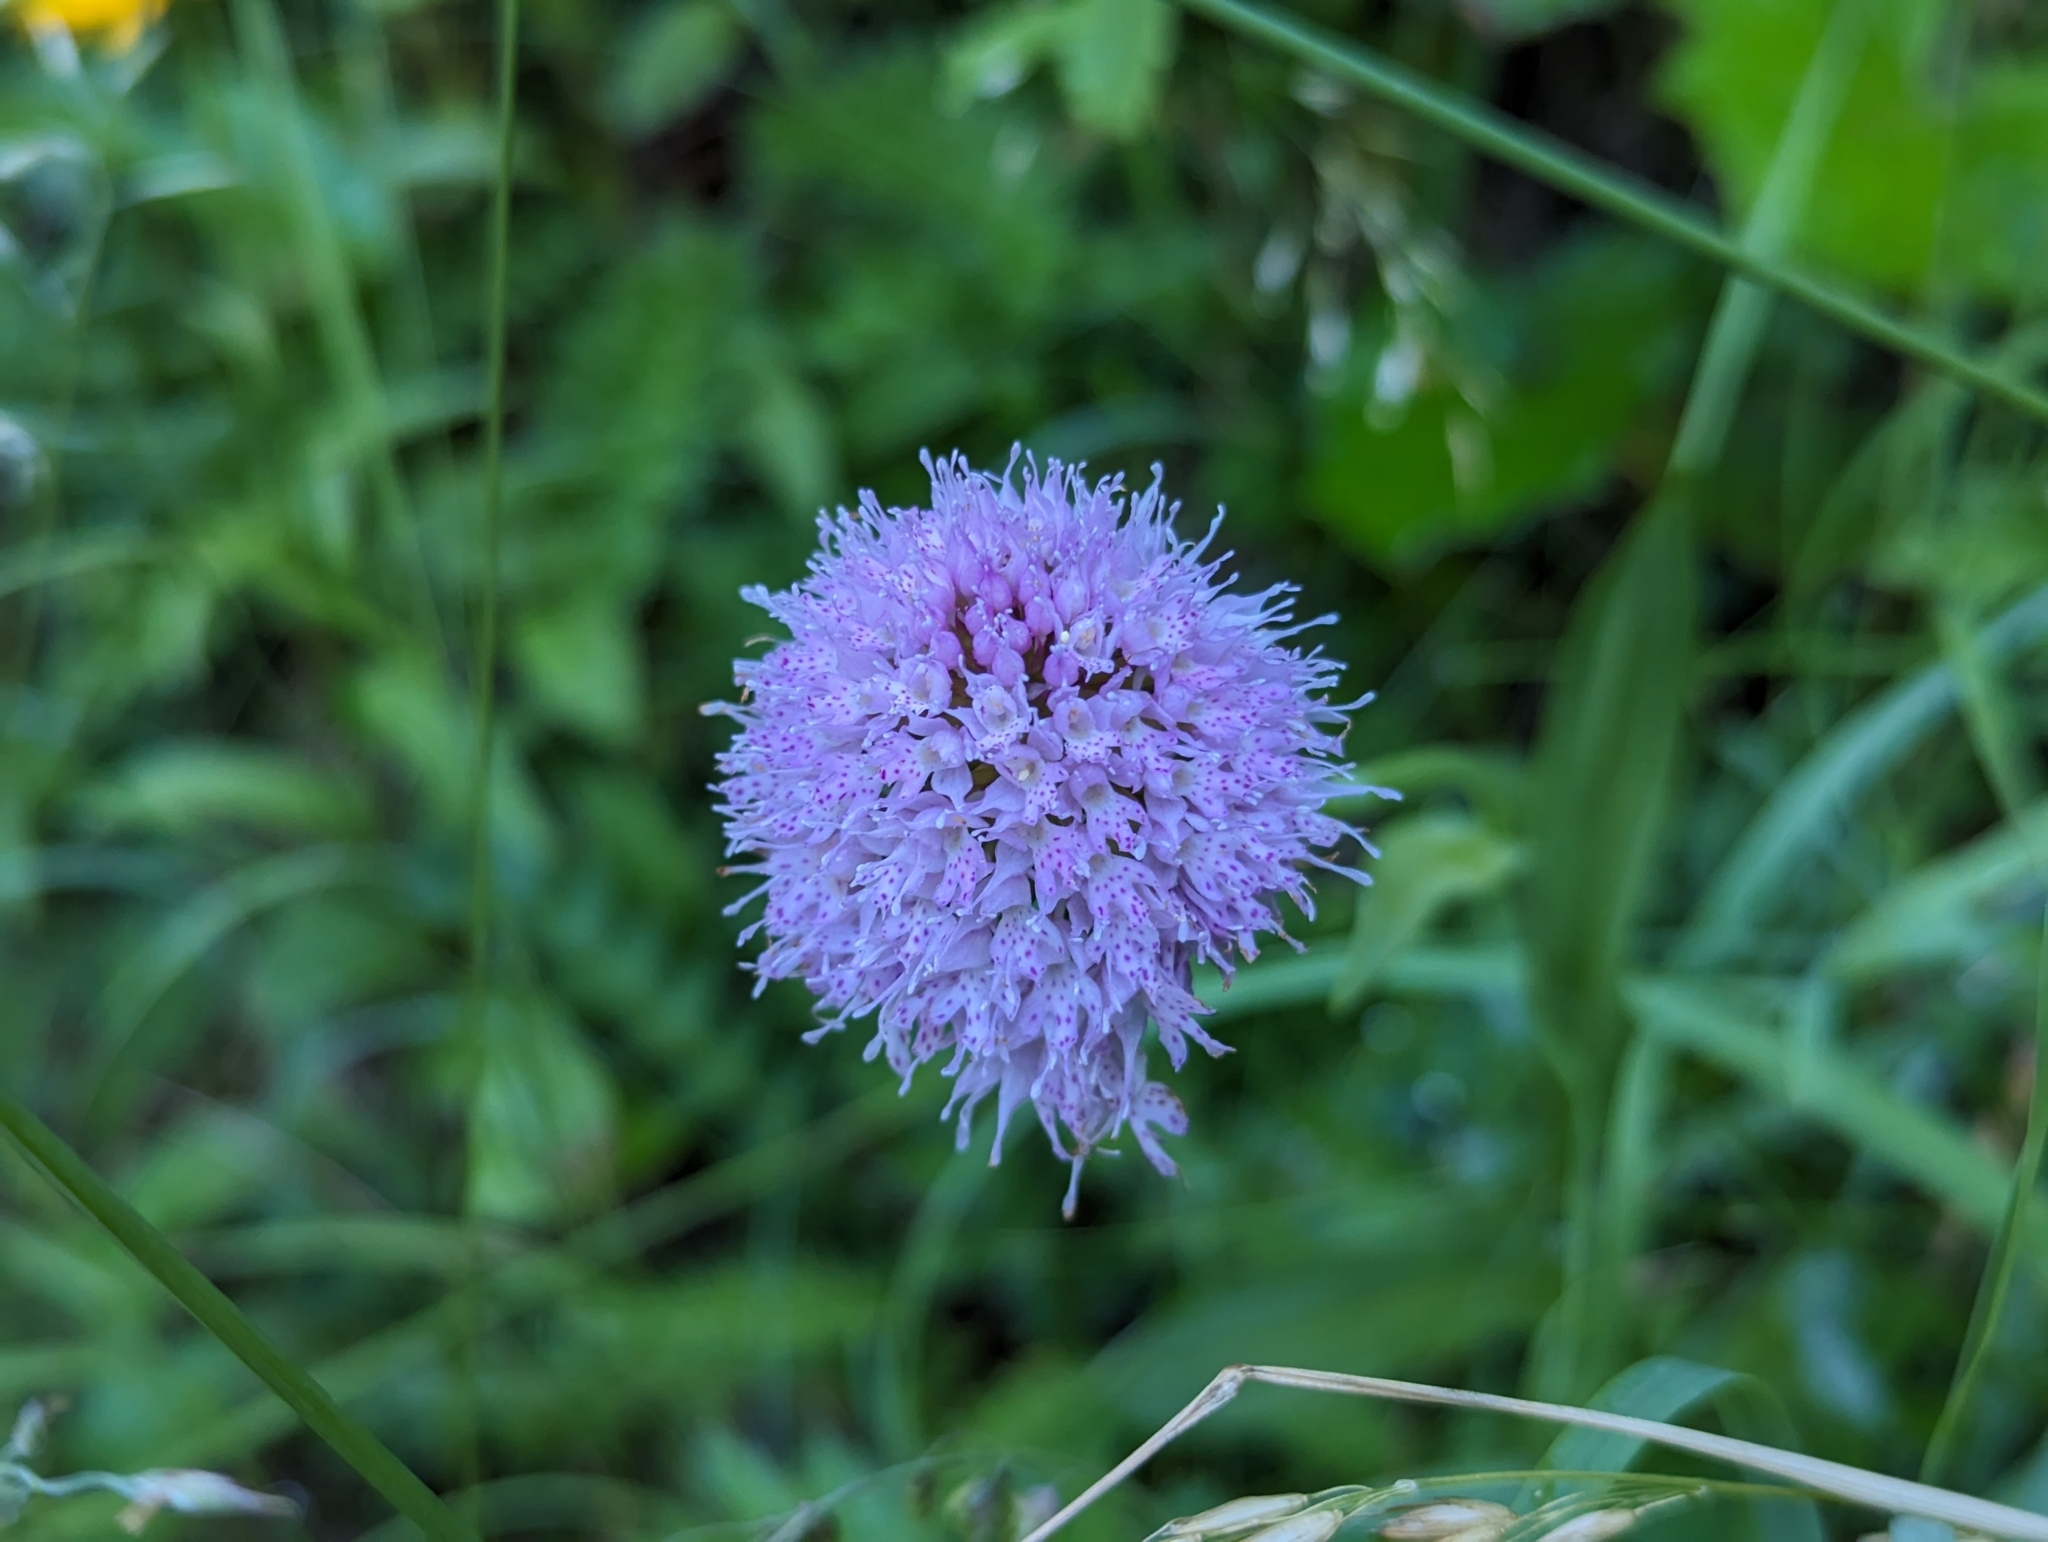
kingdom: Plantae
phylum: Tracheophyta
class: Liliopsida
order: Asparagales
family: Orchidaceae
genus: Traunsteinera
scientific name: Traunsteinera globosa
